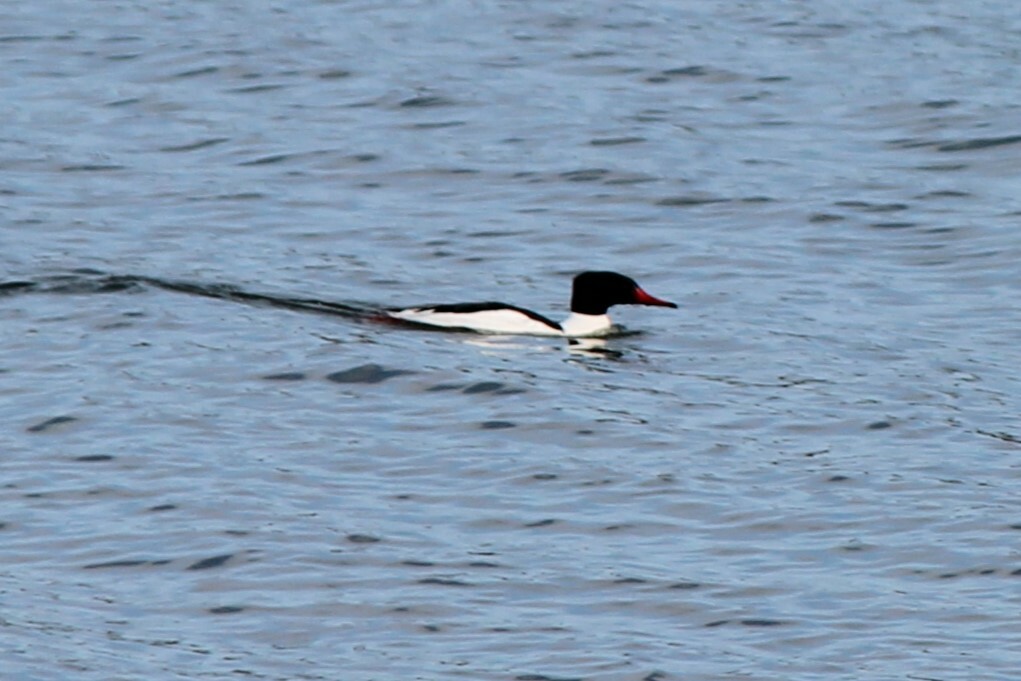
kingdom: Animalia
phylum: Chordata
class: Aves
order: Anseriformes
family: Anatidae
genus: Mergus
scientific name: Mergus merganser
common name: Common merganser
